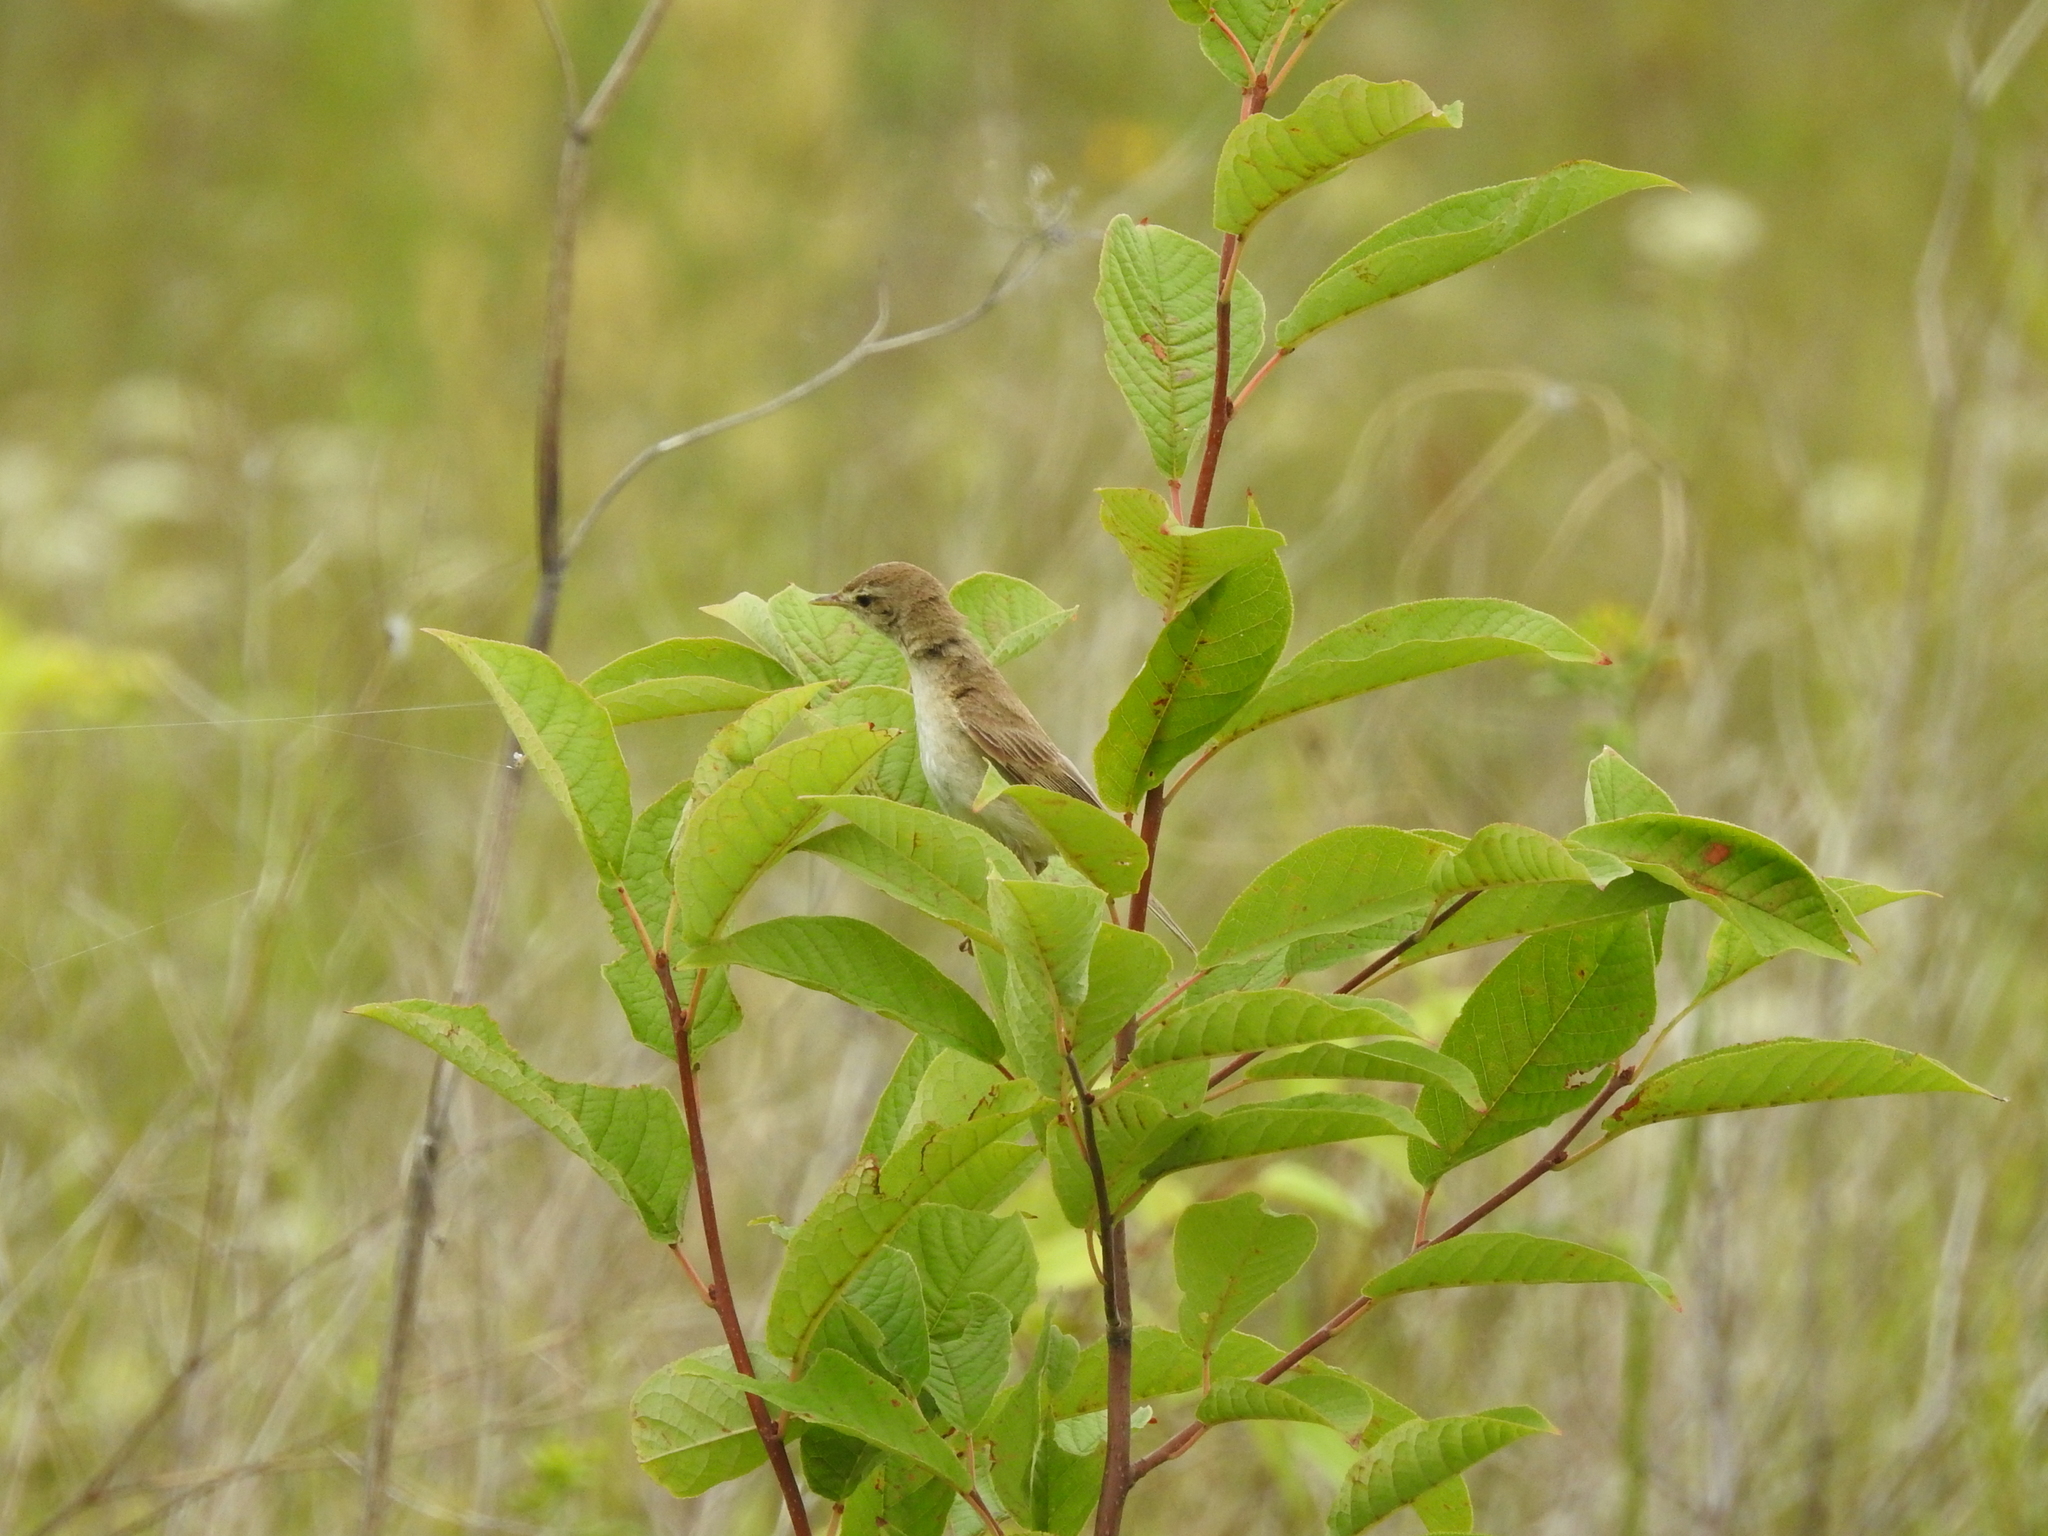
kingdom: Animalia
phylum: Chordata
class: Aves
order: Passeriformes
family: Acrocephalidae
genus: Iduna
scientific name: Iduna caligata
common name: Booted warbler
